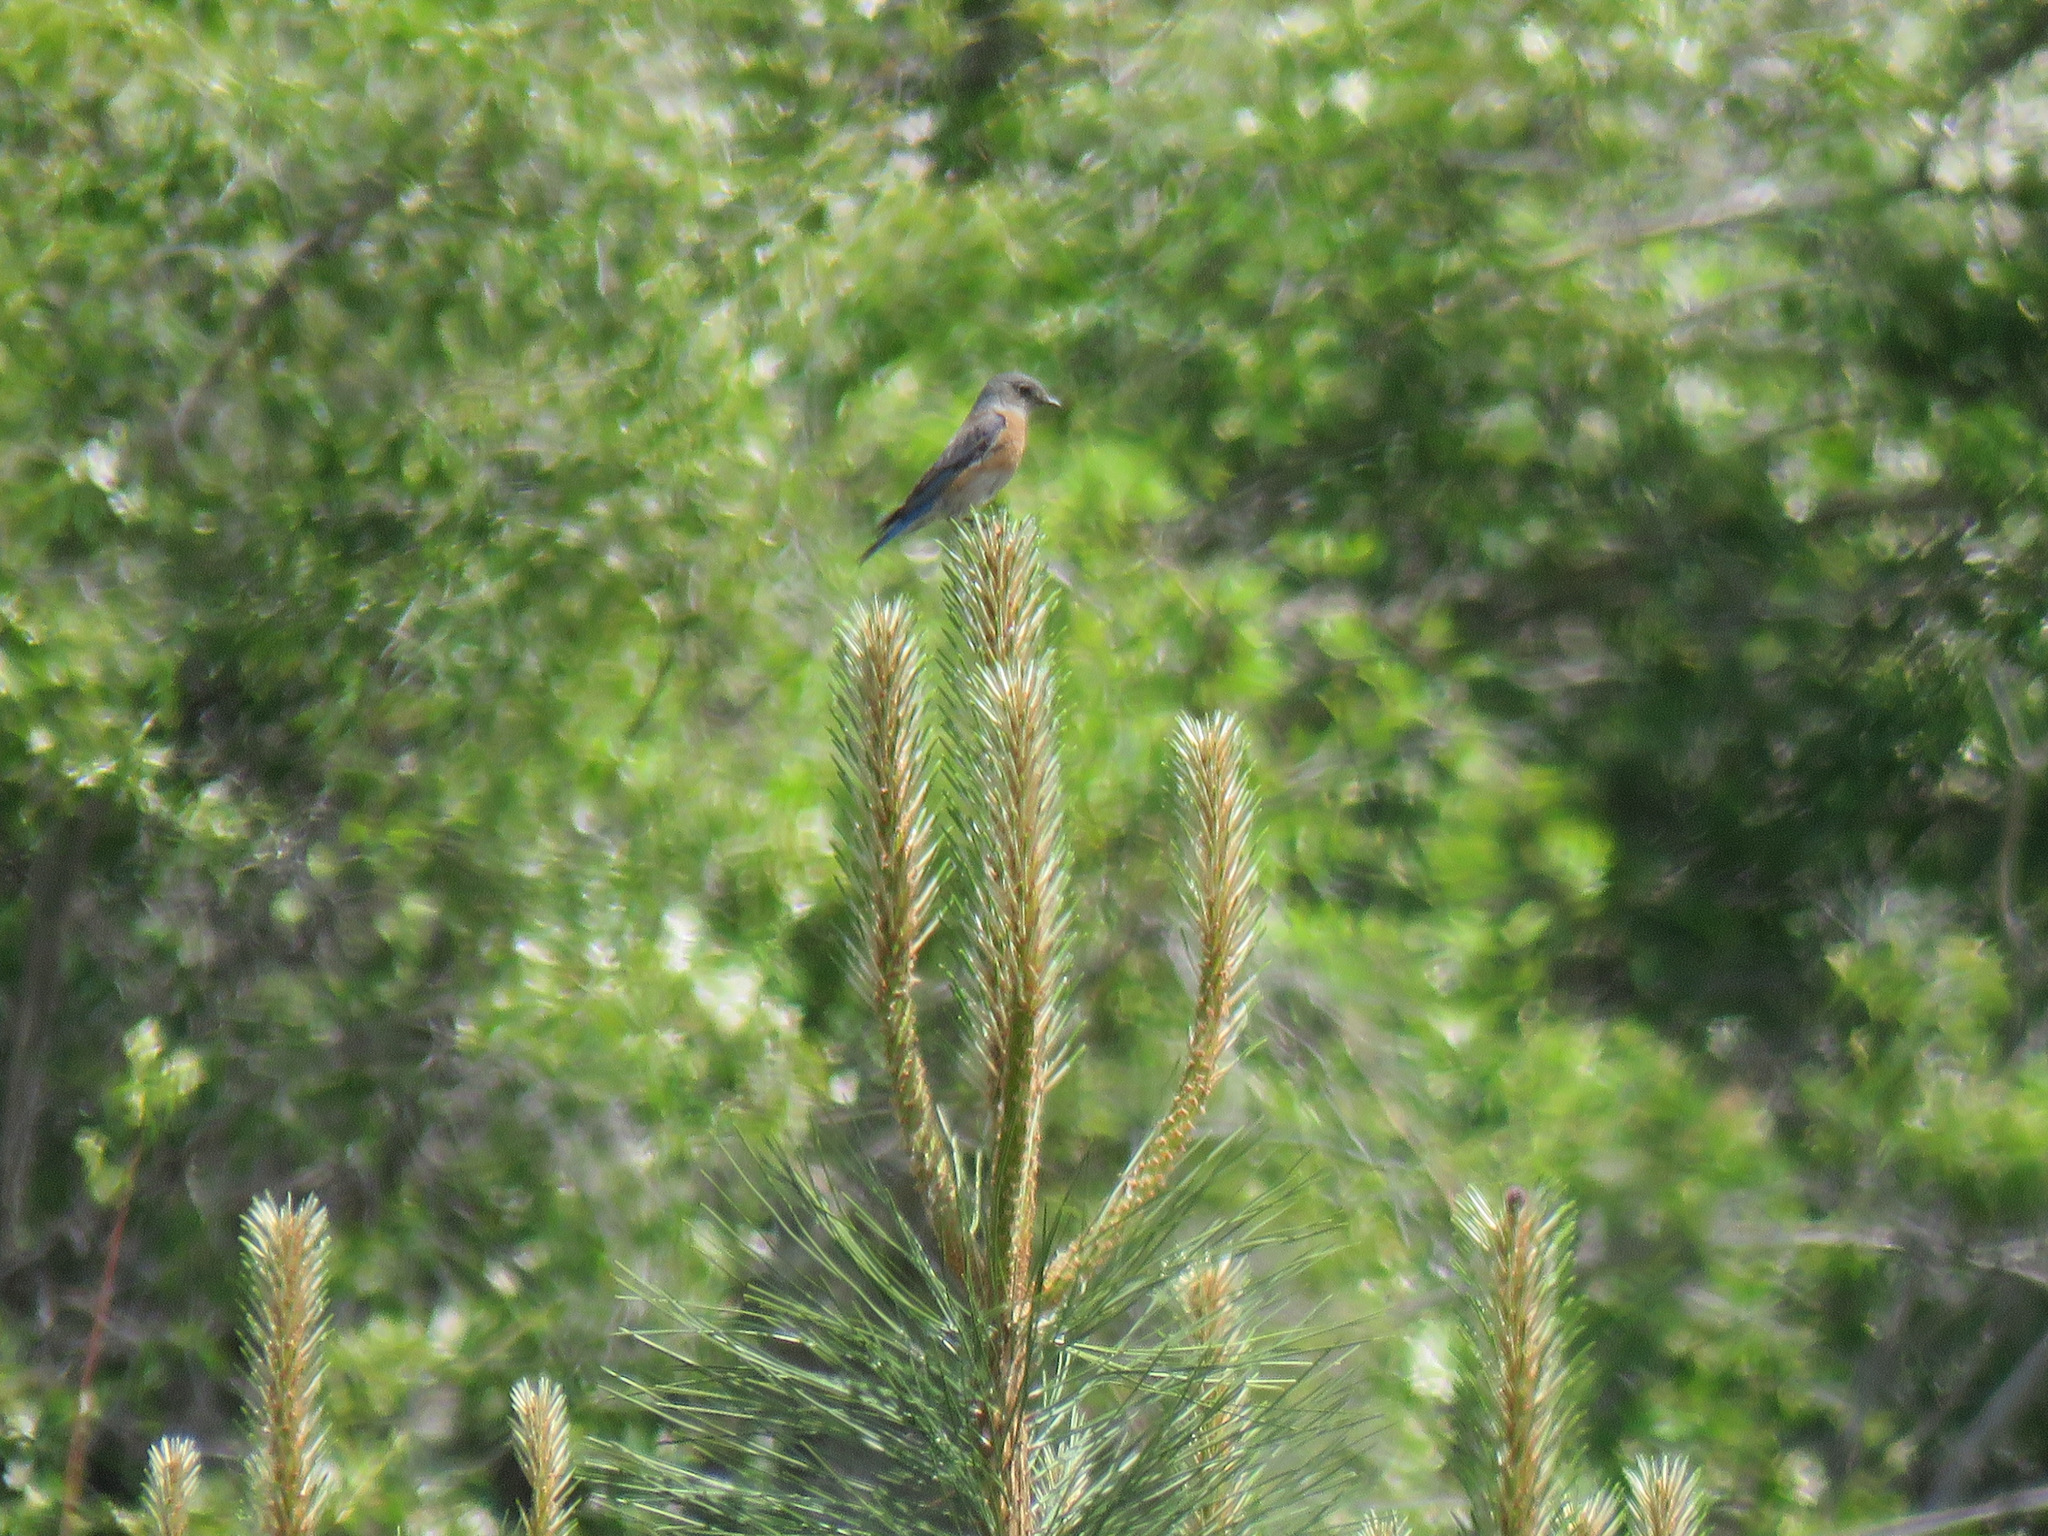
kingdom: Animalia
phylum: Chordata
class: Aves
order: Passeriformes
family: Turdidae
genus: Sialia
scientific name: Sialia mexicana
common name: Western bluebird
